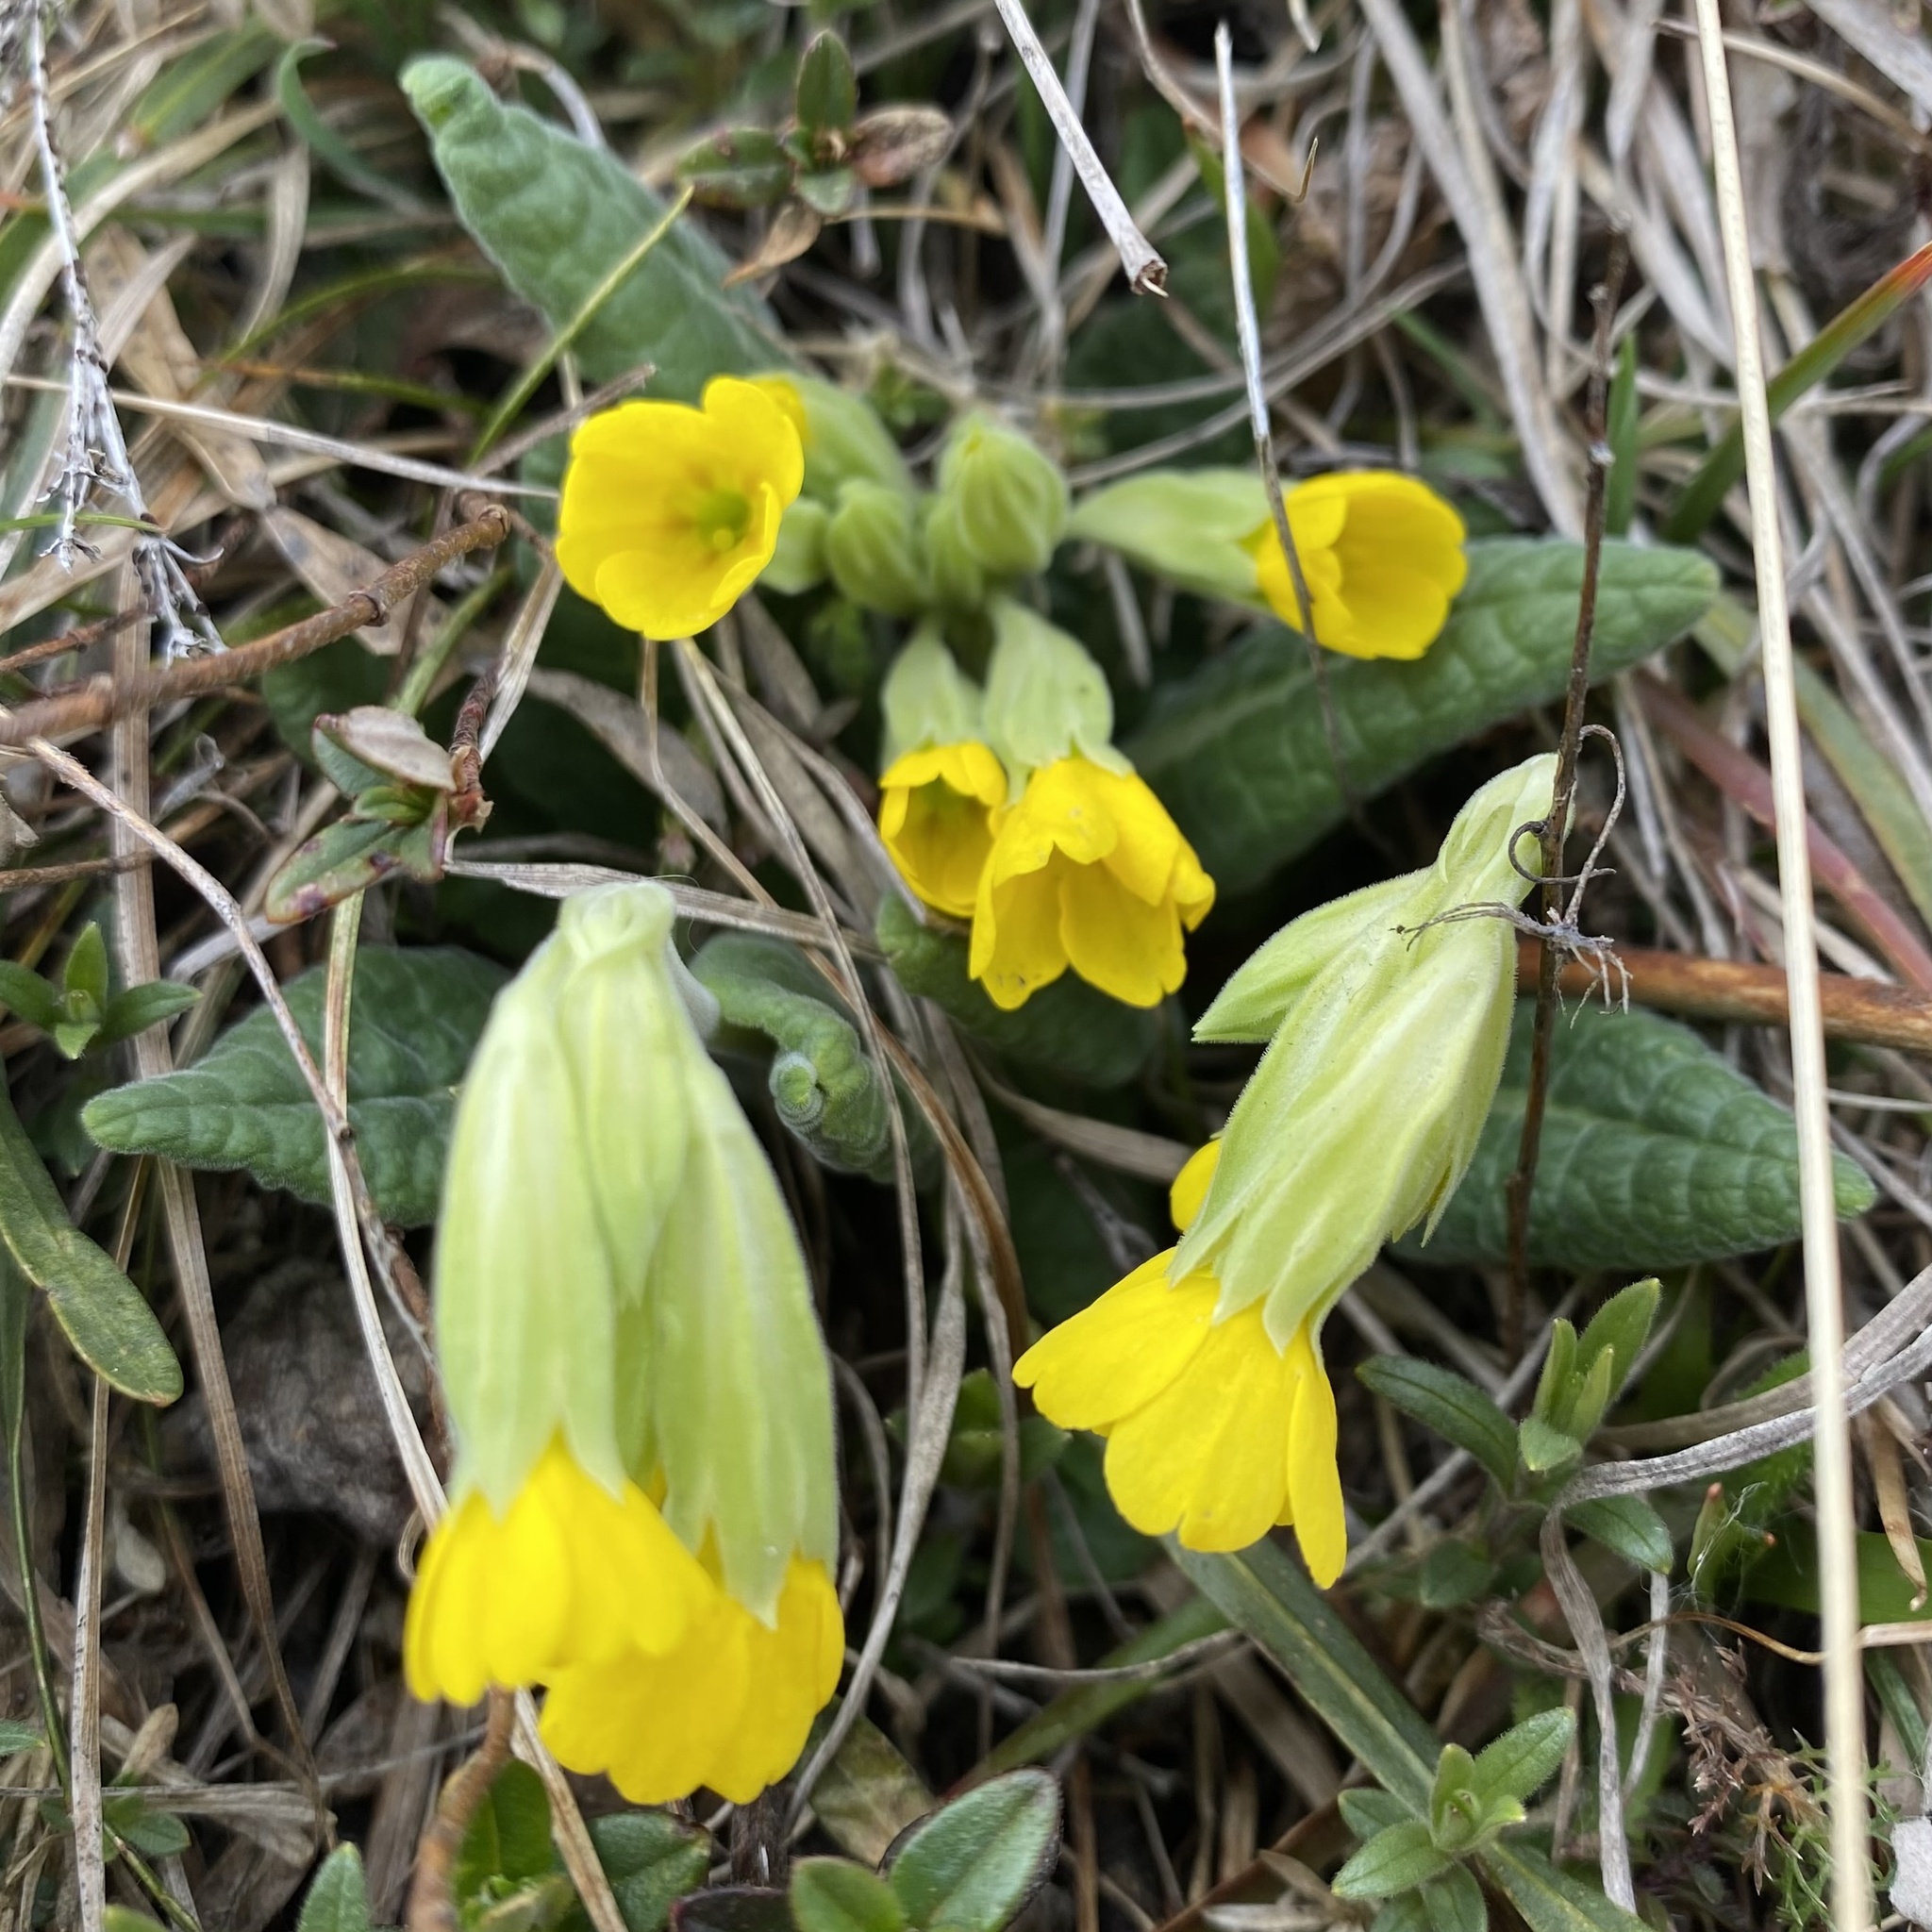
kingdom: Plantae
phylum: Tracheophyta
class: Magnoliopsida
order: Ericales
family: Primulaceae
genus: Primula
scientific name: Primula veris
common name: Cowslip
